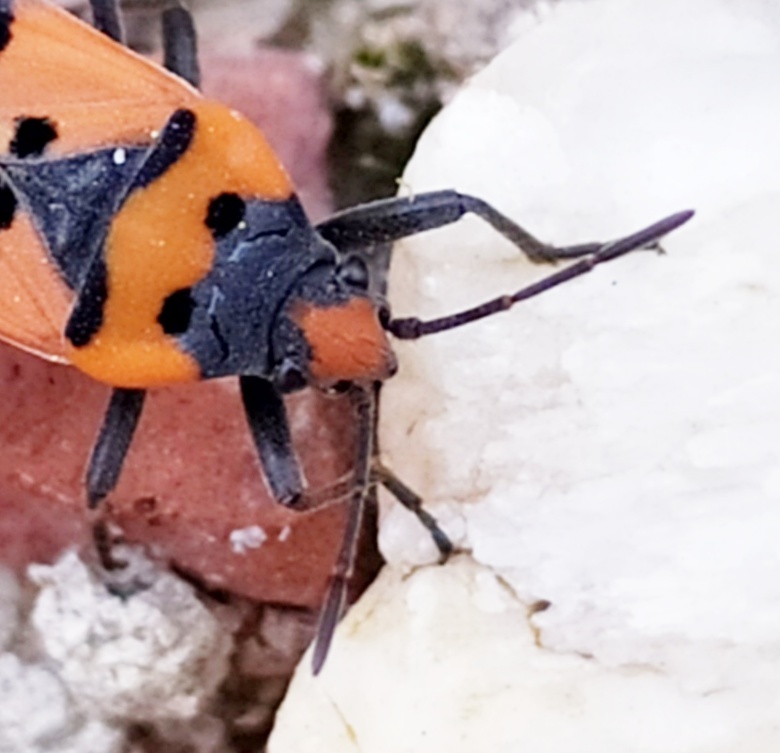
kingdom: Animalia
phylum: Arthropoda
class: Insecta
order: Hemiptera
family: Lygaeidae
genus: Lygaeus
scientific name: Lygaeus simulans
